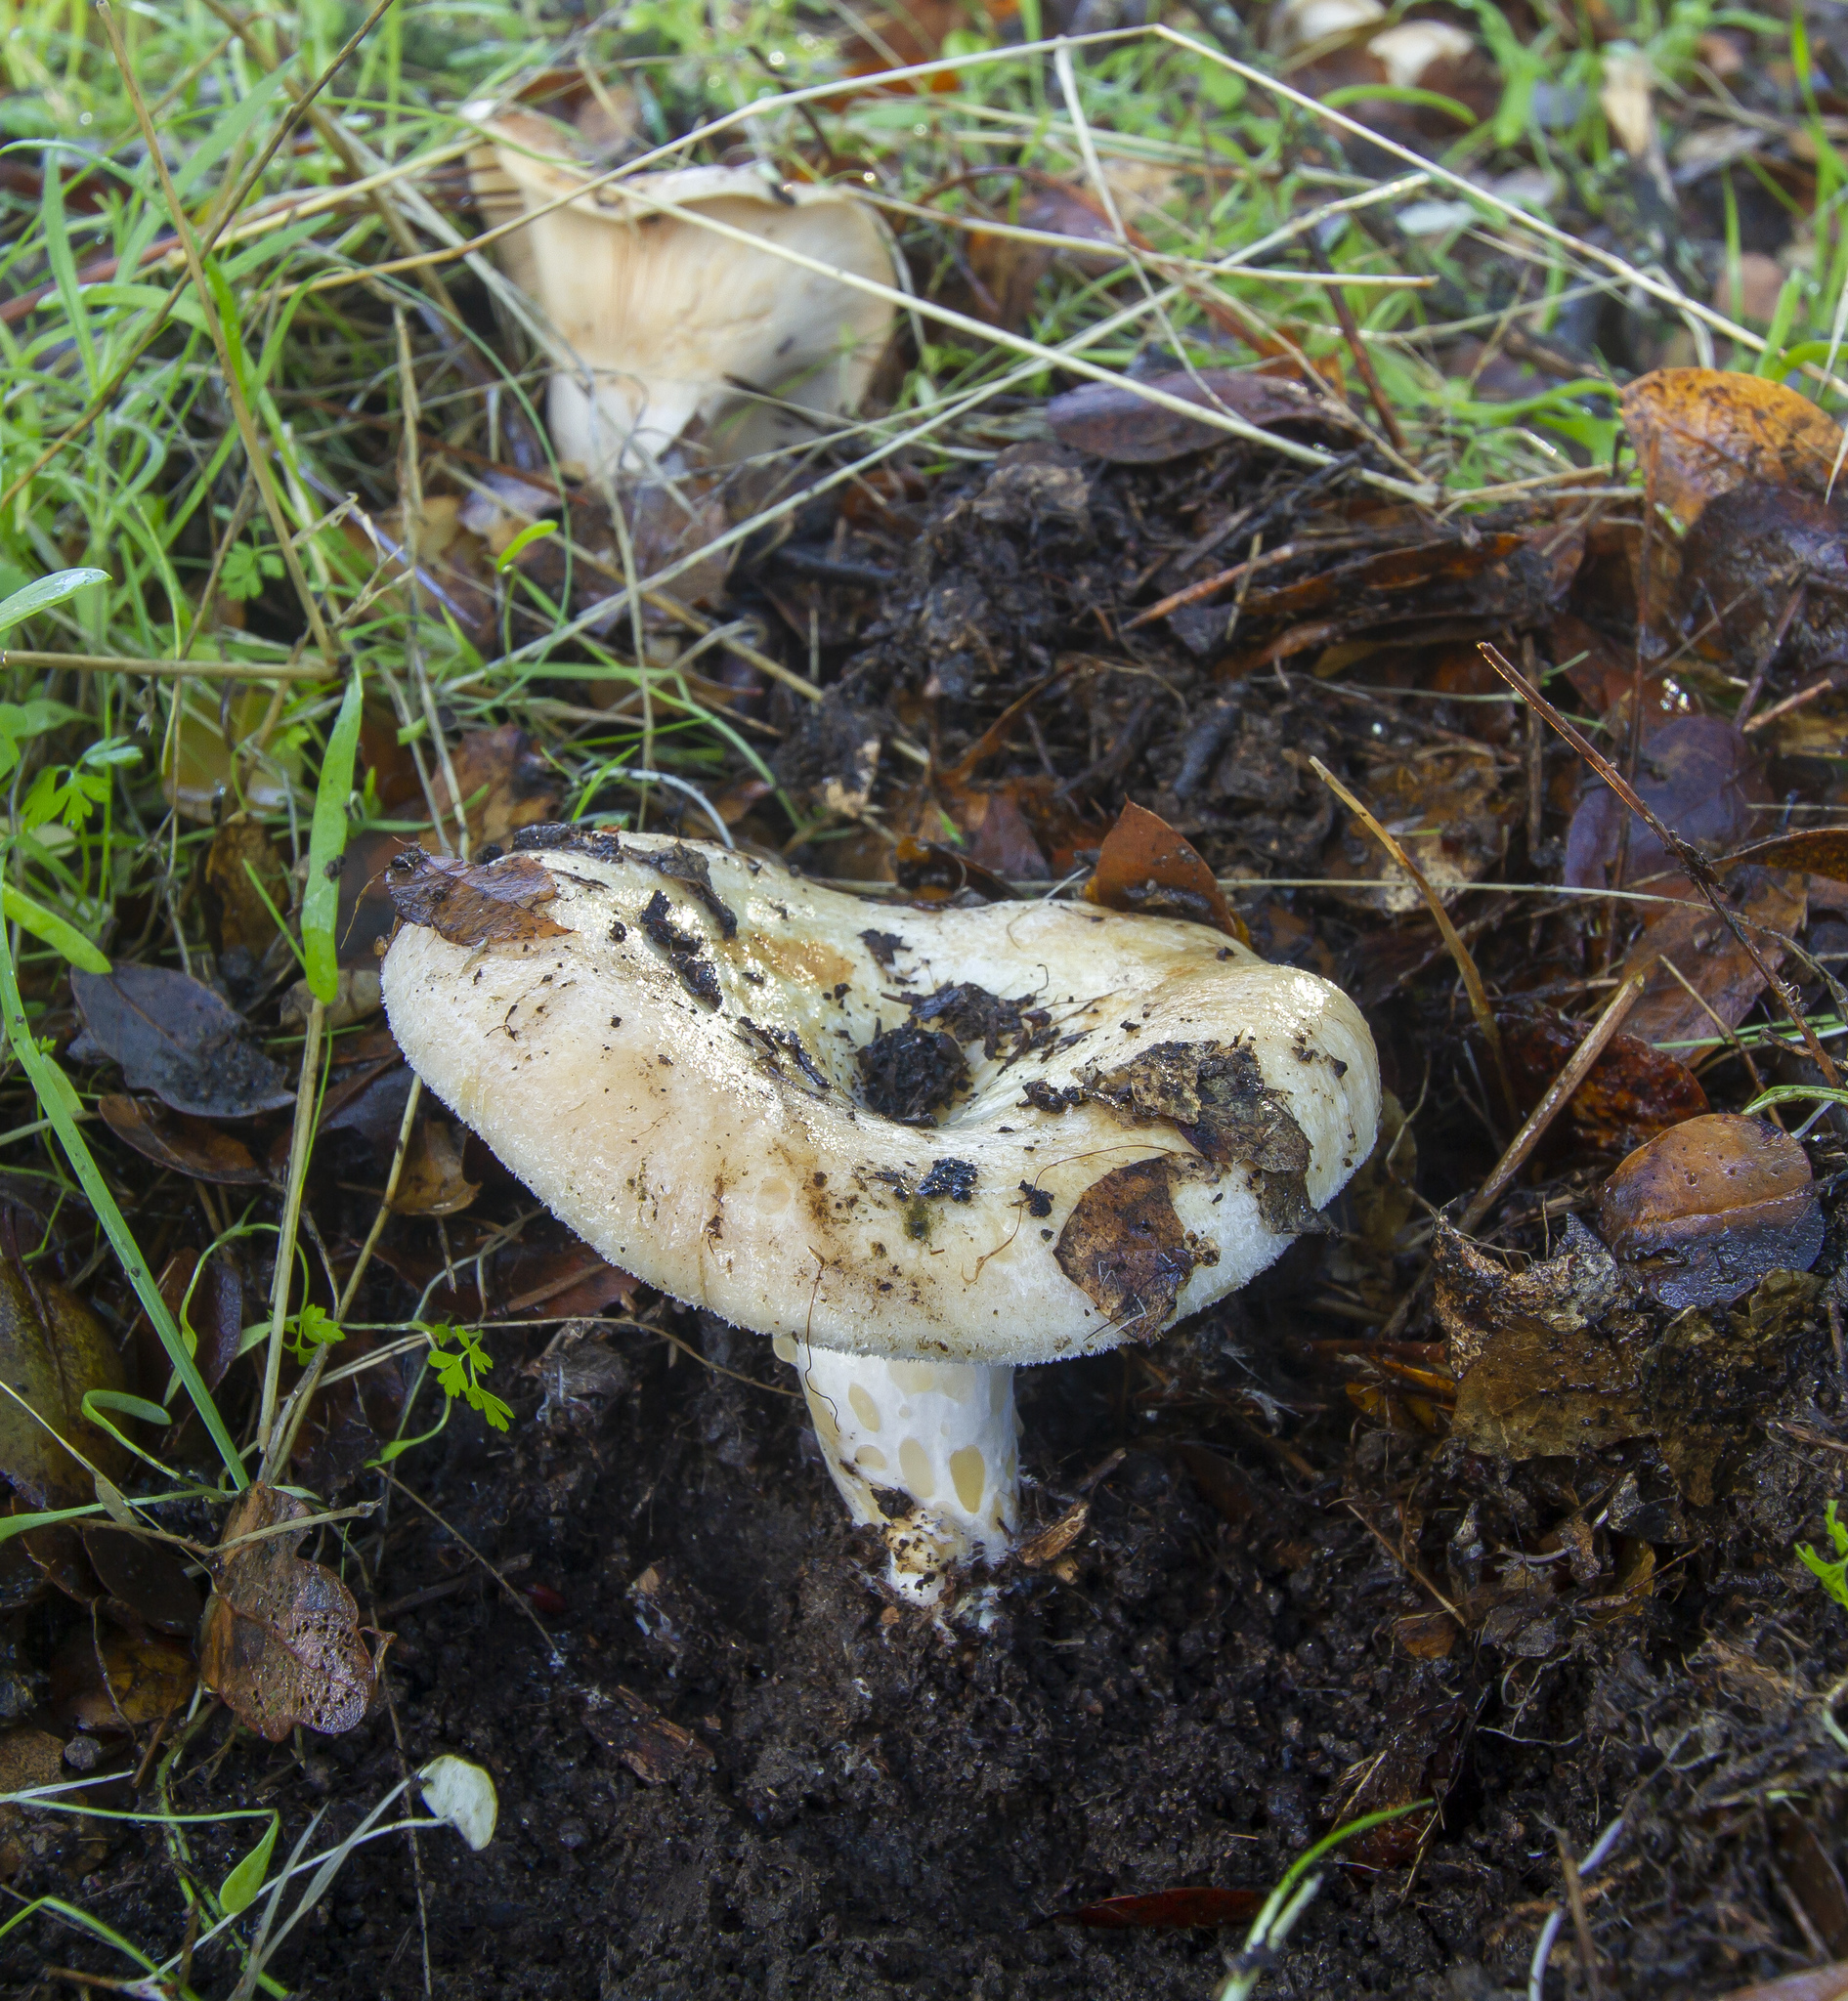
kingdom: Fungi
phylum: Basidiomycota
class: Agaricomycetes
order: Russulales
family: Russulaceae
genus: Lactarius
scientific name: Lactarius alnicola
